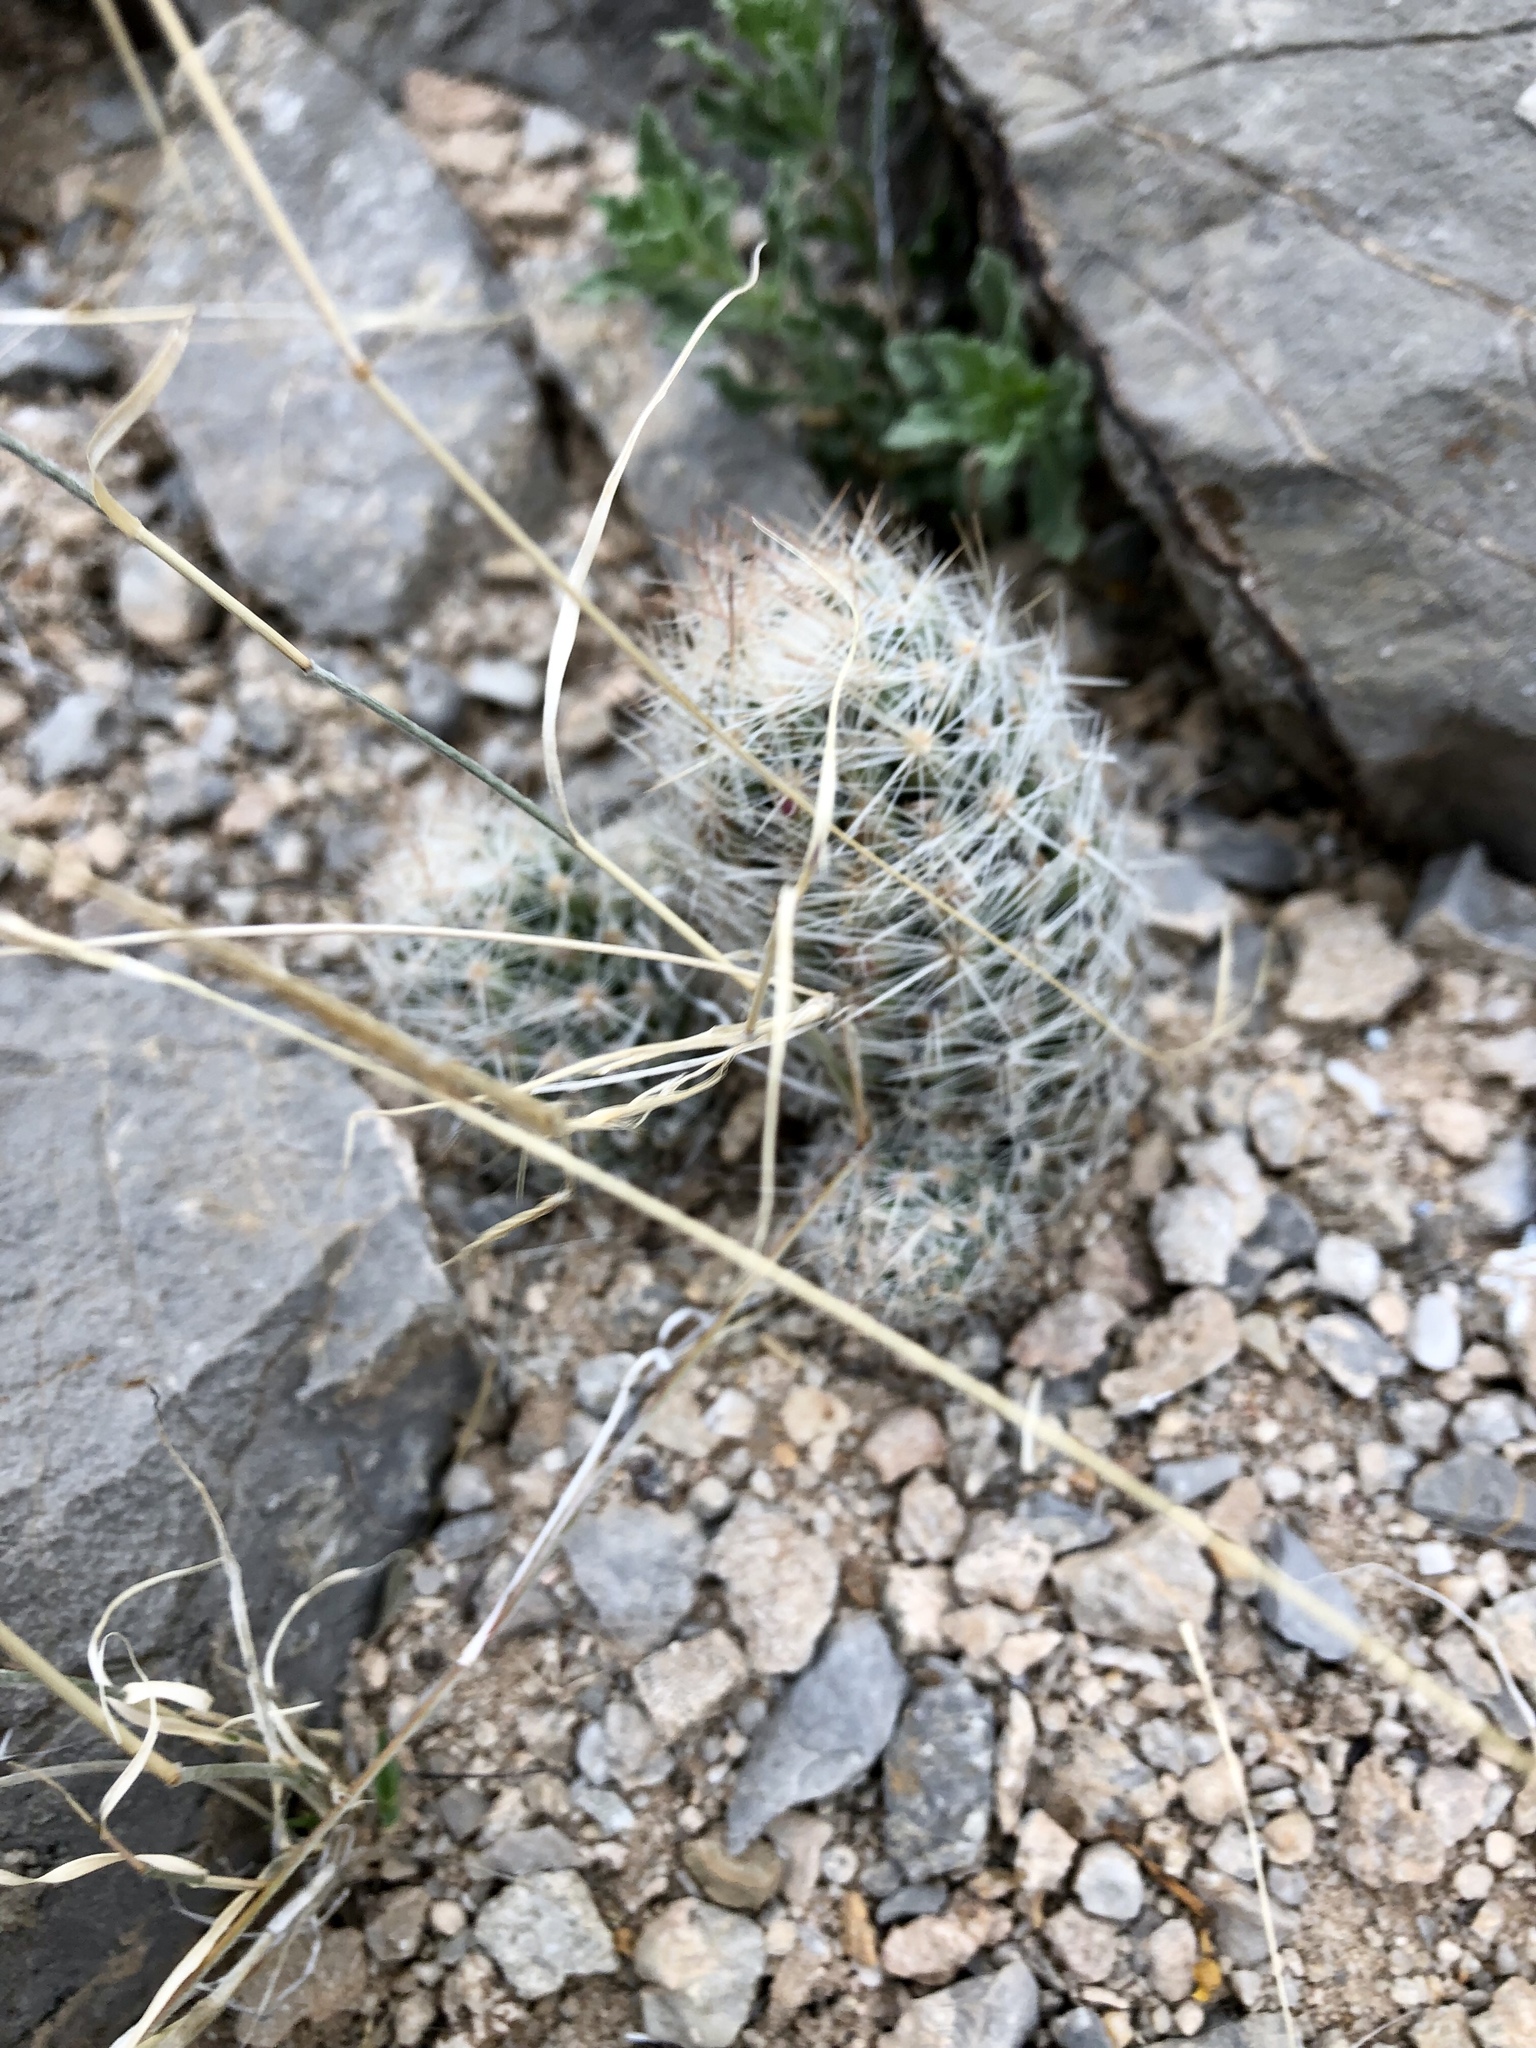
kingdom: Plantae
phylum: Tracheophyta
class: Magnoliopsida
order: Caryophyllales
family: Cactaceae
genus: Pelecyphora
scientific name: Pelecyphora tuberculosa
